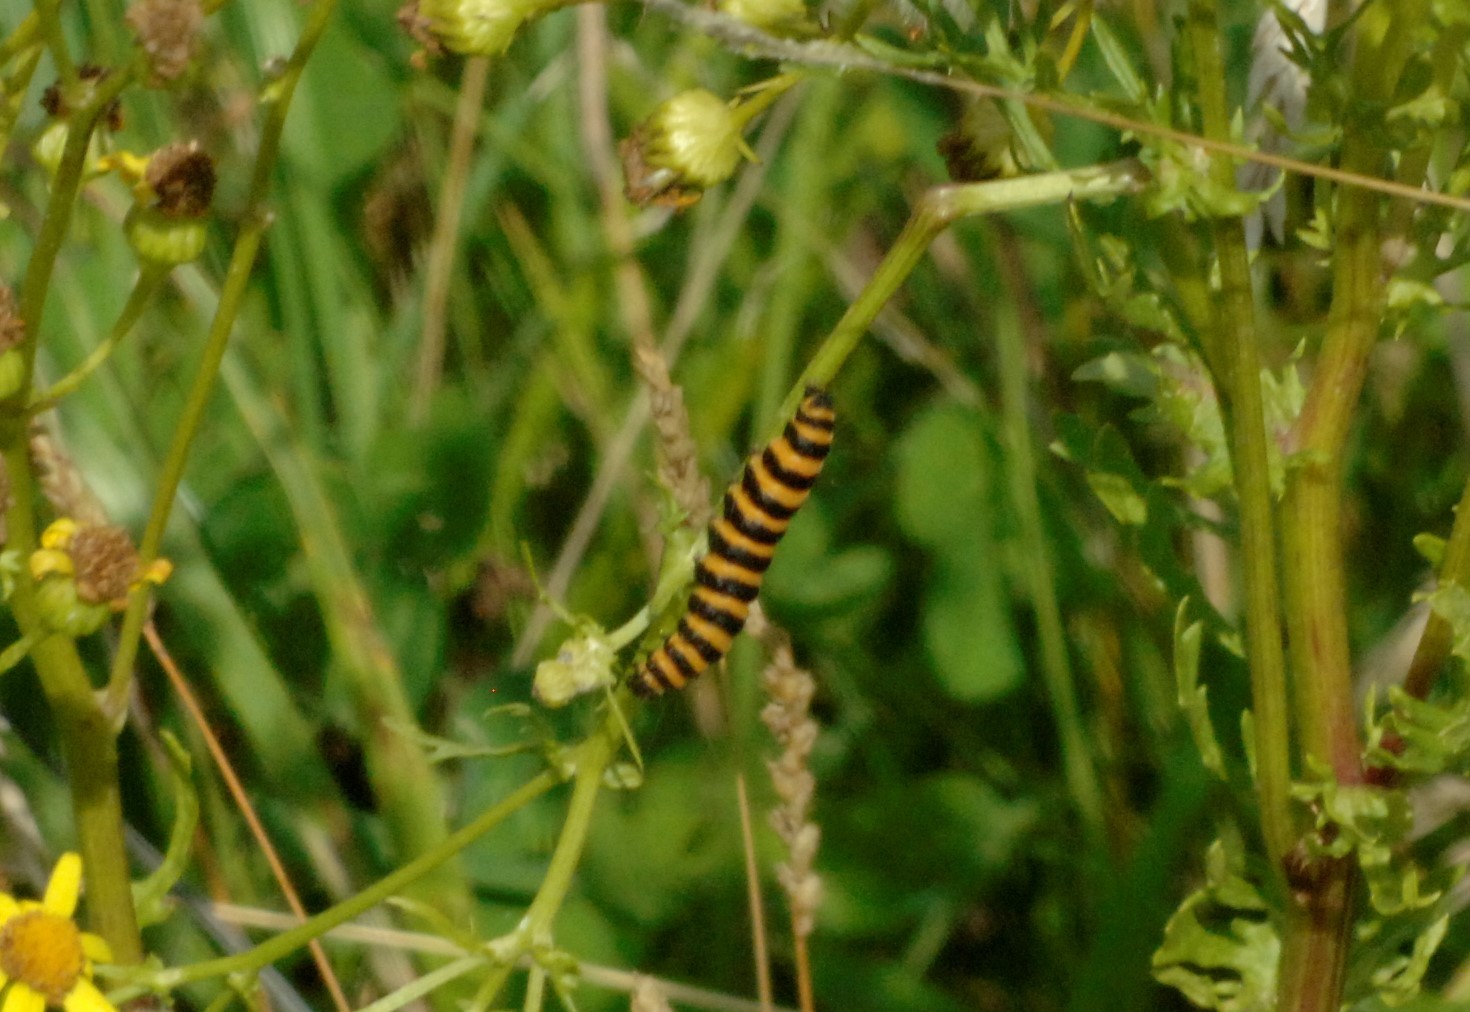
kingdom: Animalia
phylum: Arthropoda
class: Insecta
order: Lepidoptera
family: Erebidae
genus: Tyria
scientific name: Tyria jacobaeae
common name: Cinnabar
